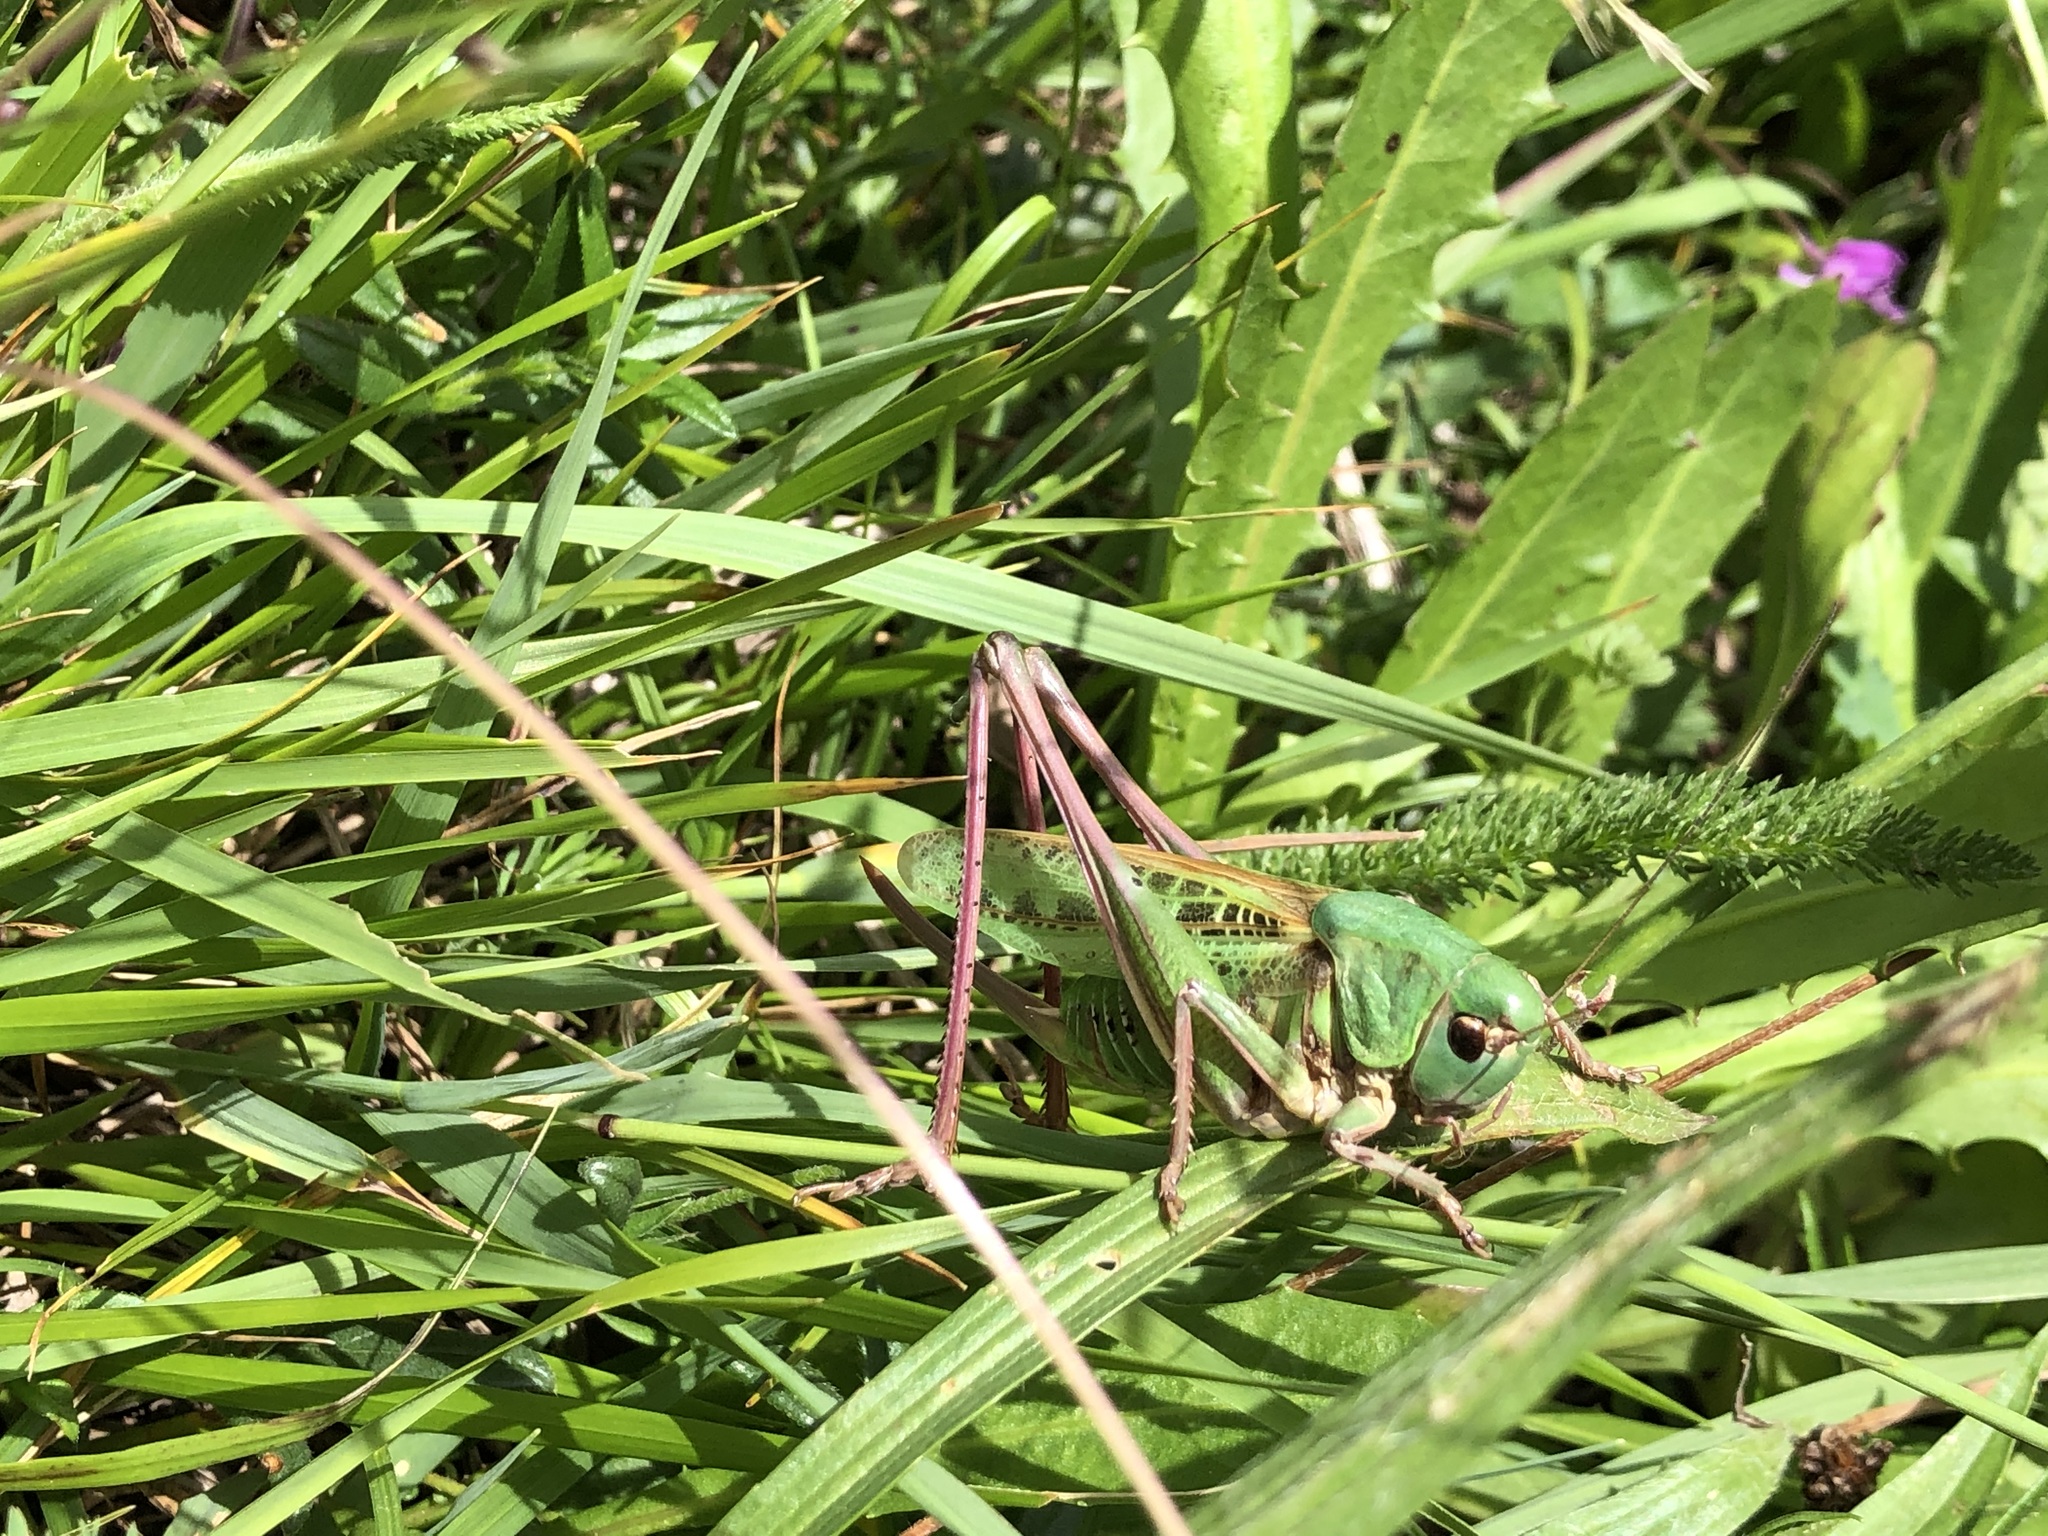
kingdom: Animalia
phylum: Arthropoda
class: Insecta
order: Orthoptera
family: Tettigoniidae
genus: Decticus
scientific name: Decticus verrucivorus
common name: Wart-biter
